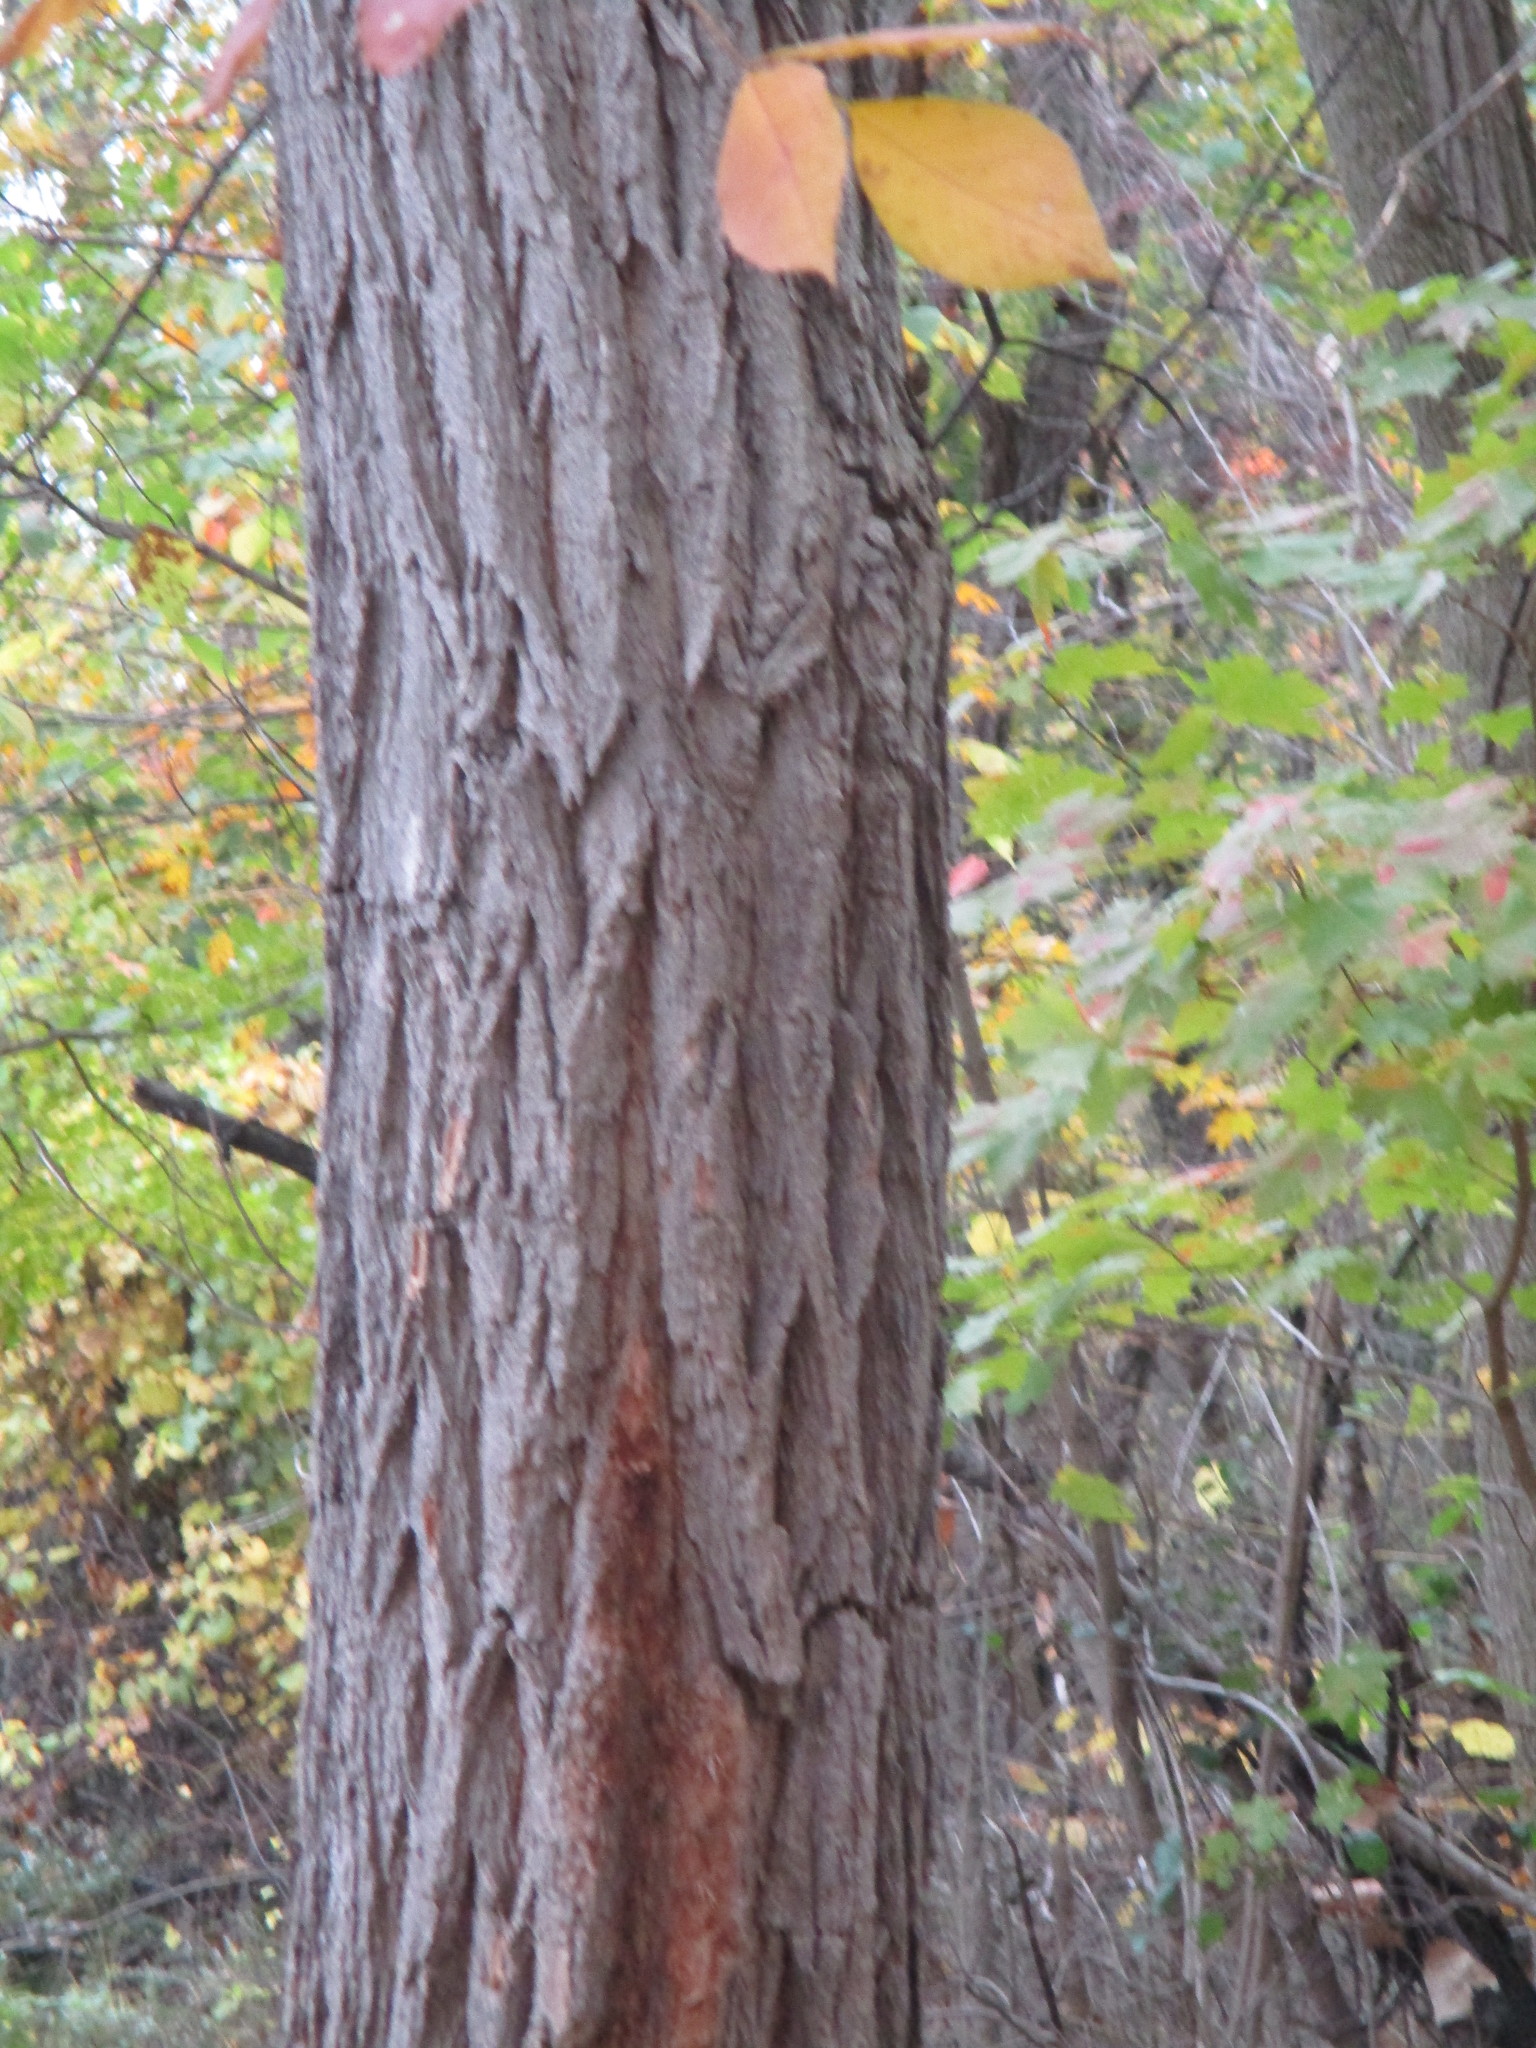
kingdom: Plantae
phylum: Tracheophyta
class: Magnoliopsida
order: Fabales
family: Fabaceae
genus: Robinia
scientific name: Robinia pseudoacacia
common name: Black locust
